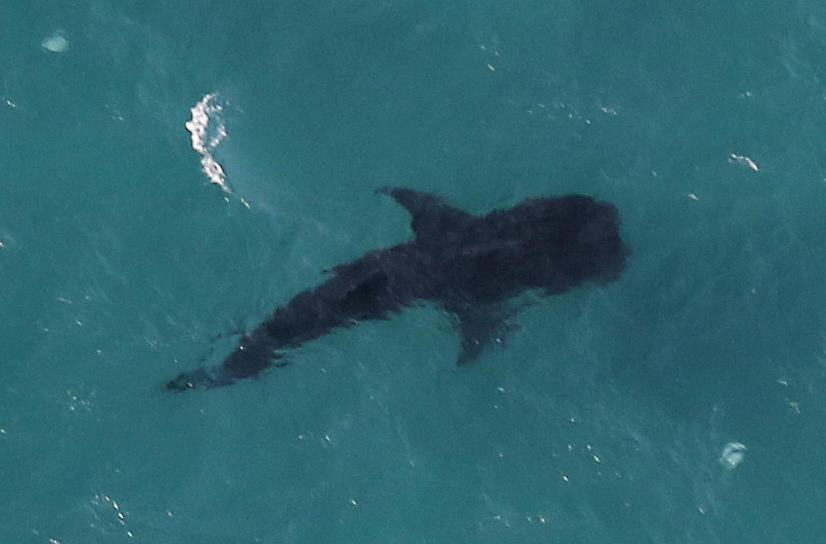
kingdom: Animalia
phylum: Chordata
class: Elasmobranchii
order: Orectolobiformes
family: Rhincodontidae
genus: Rhincodon
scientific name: Rhincodon typus
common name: Whale shark
